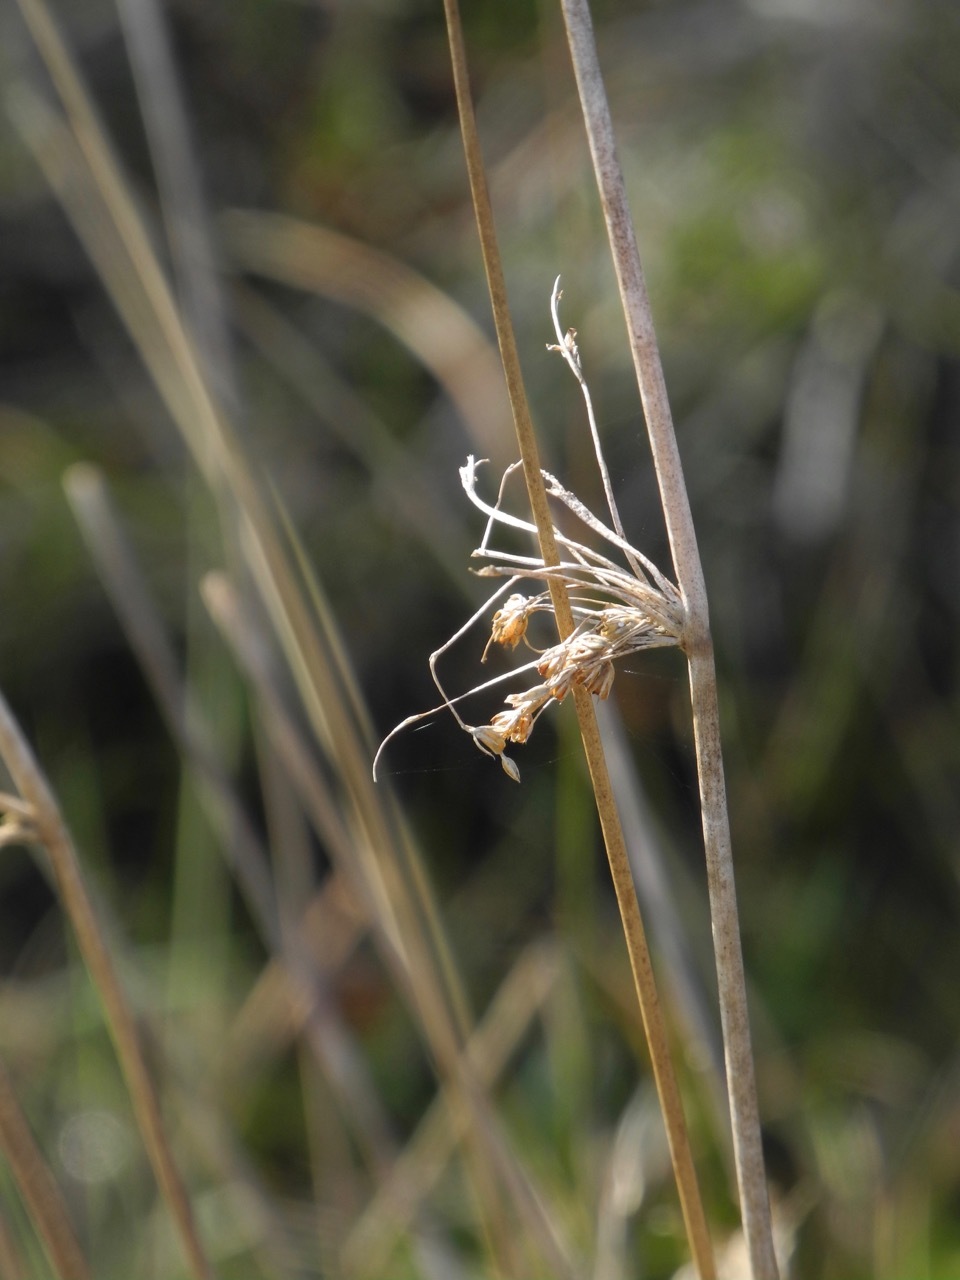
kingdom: Plantae
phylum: Tracheophyta
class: Liliopsida
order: Poales
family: Juncaceae
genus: Juncus
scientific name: Juncus effusus
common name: Soft rush
